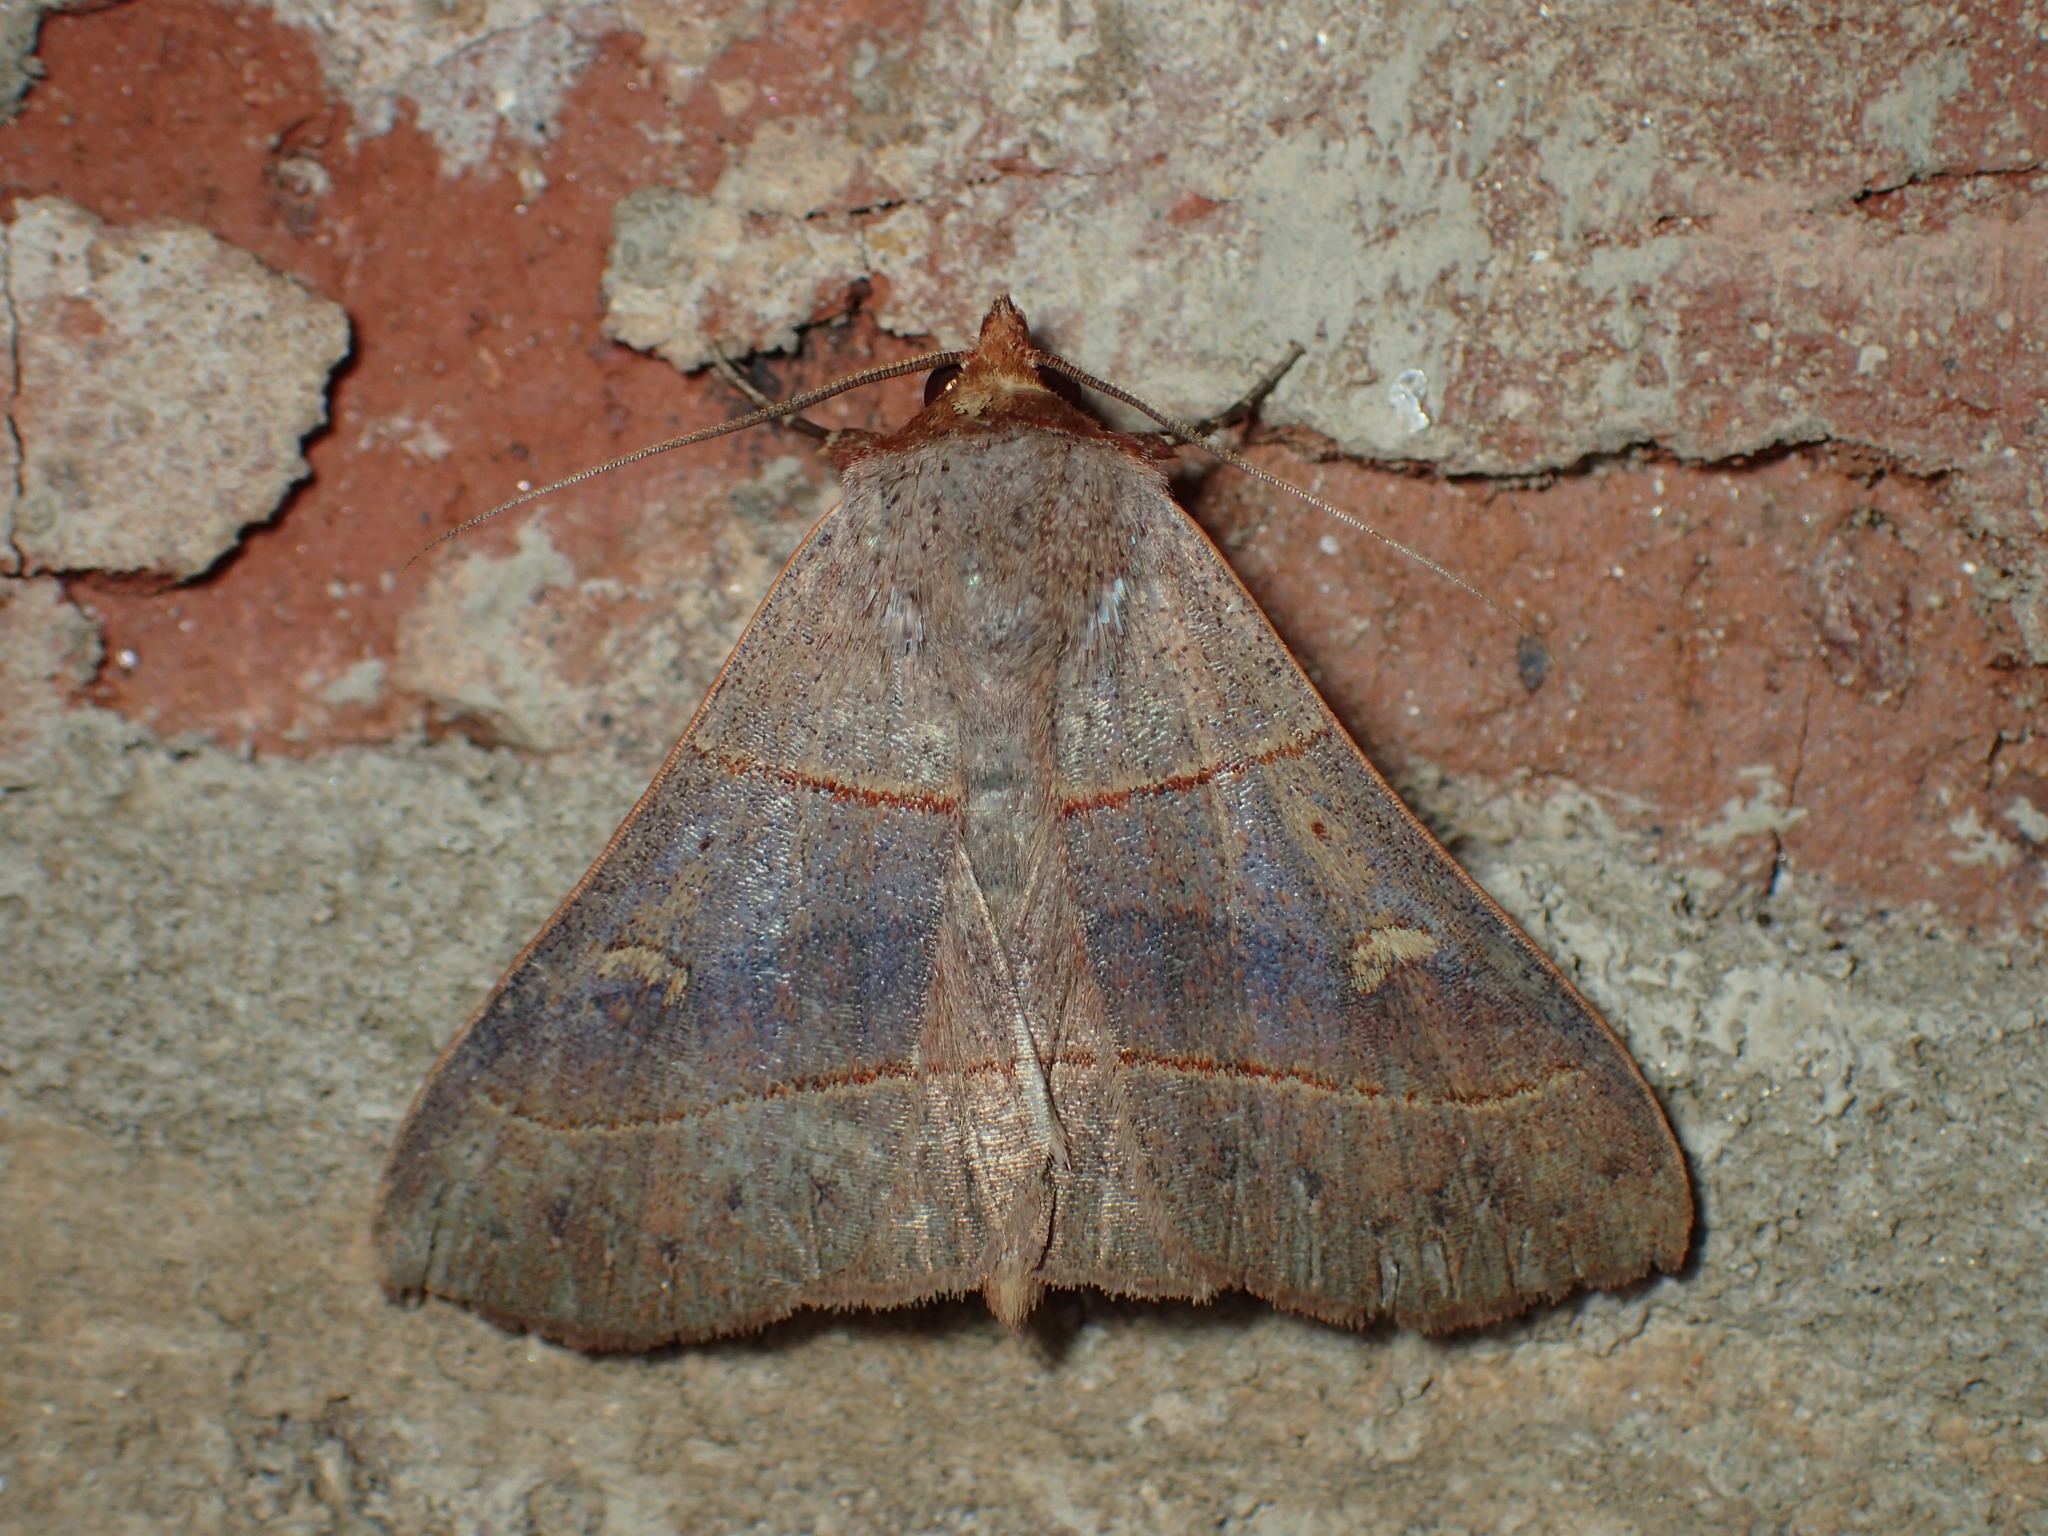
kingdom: Animalia
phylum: Arthropoda
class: Insecta
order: Lepidoptera
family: Erebidae
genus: Panopoda
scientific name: Panopoda rufimargo
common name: Red-lined panopoda moth
